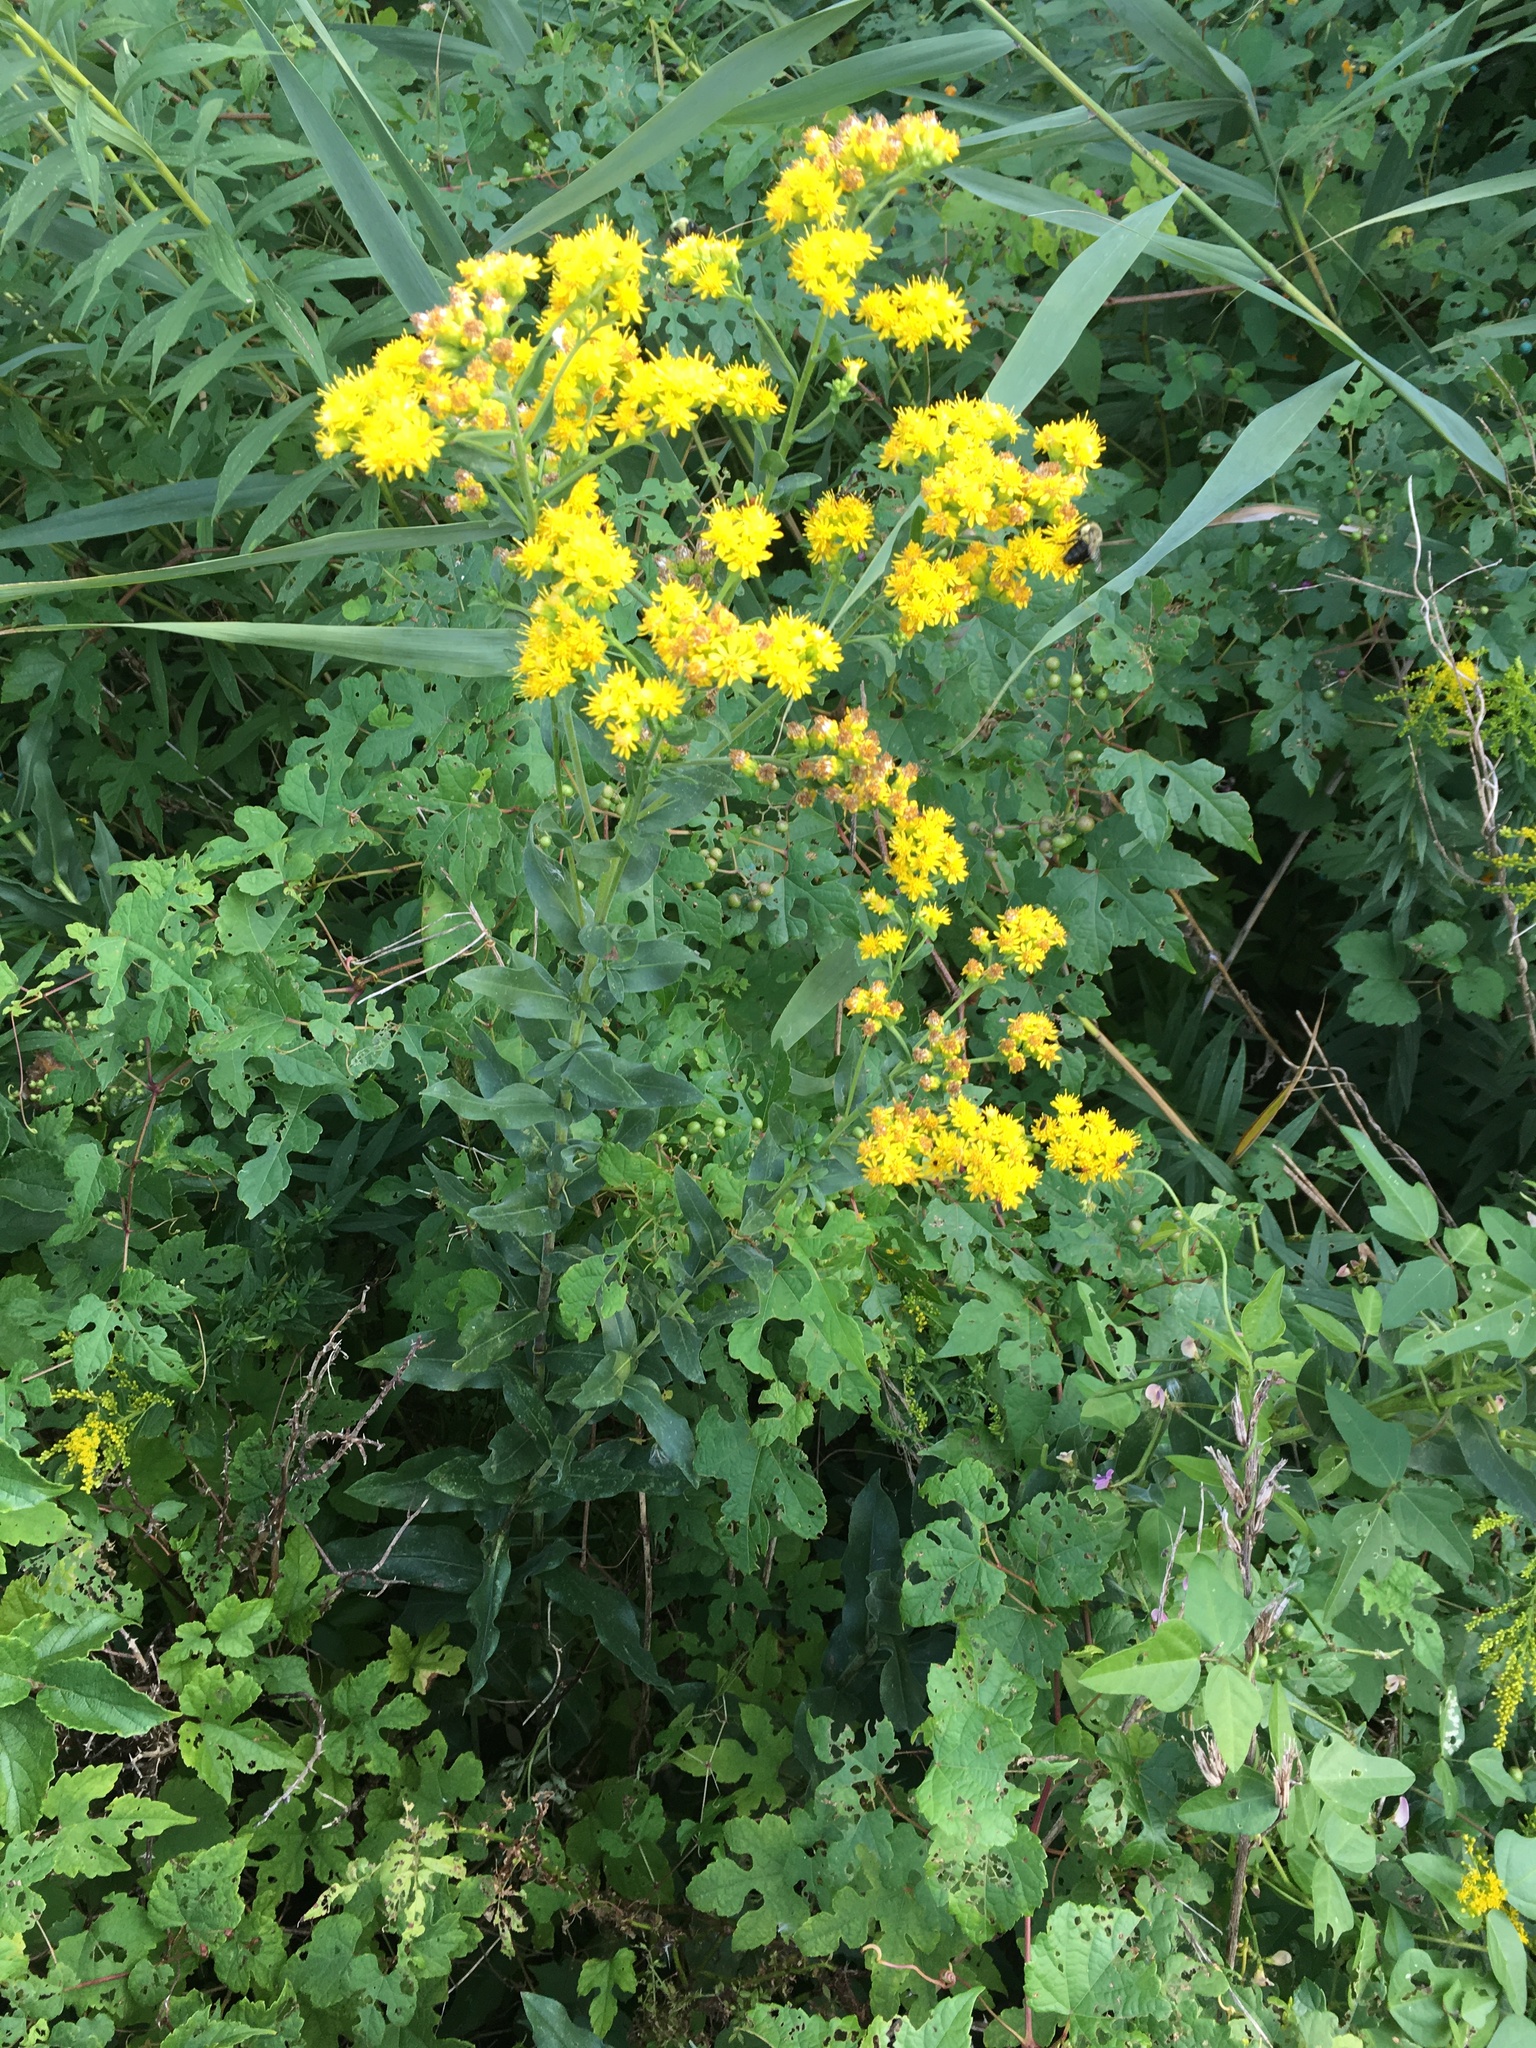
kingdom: Plantae
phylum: Tracheophyta
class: Magnoliopsida
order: Asterales
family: Asteraceae
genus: Solidago
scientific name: Solidago rigida
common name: Rigid goldenrod
